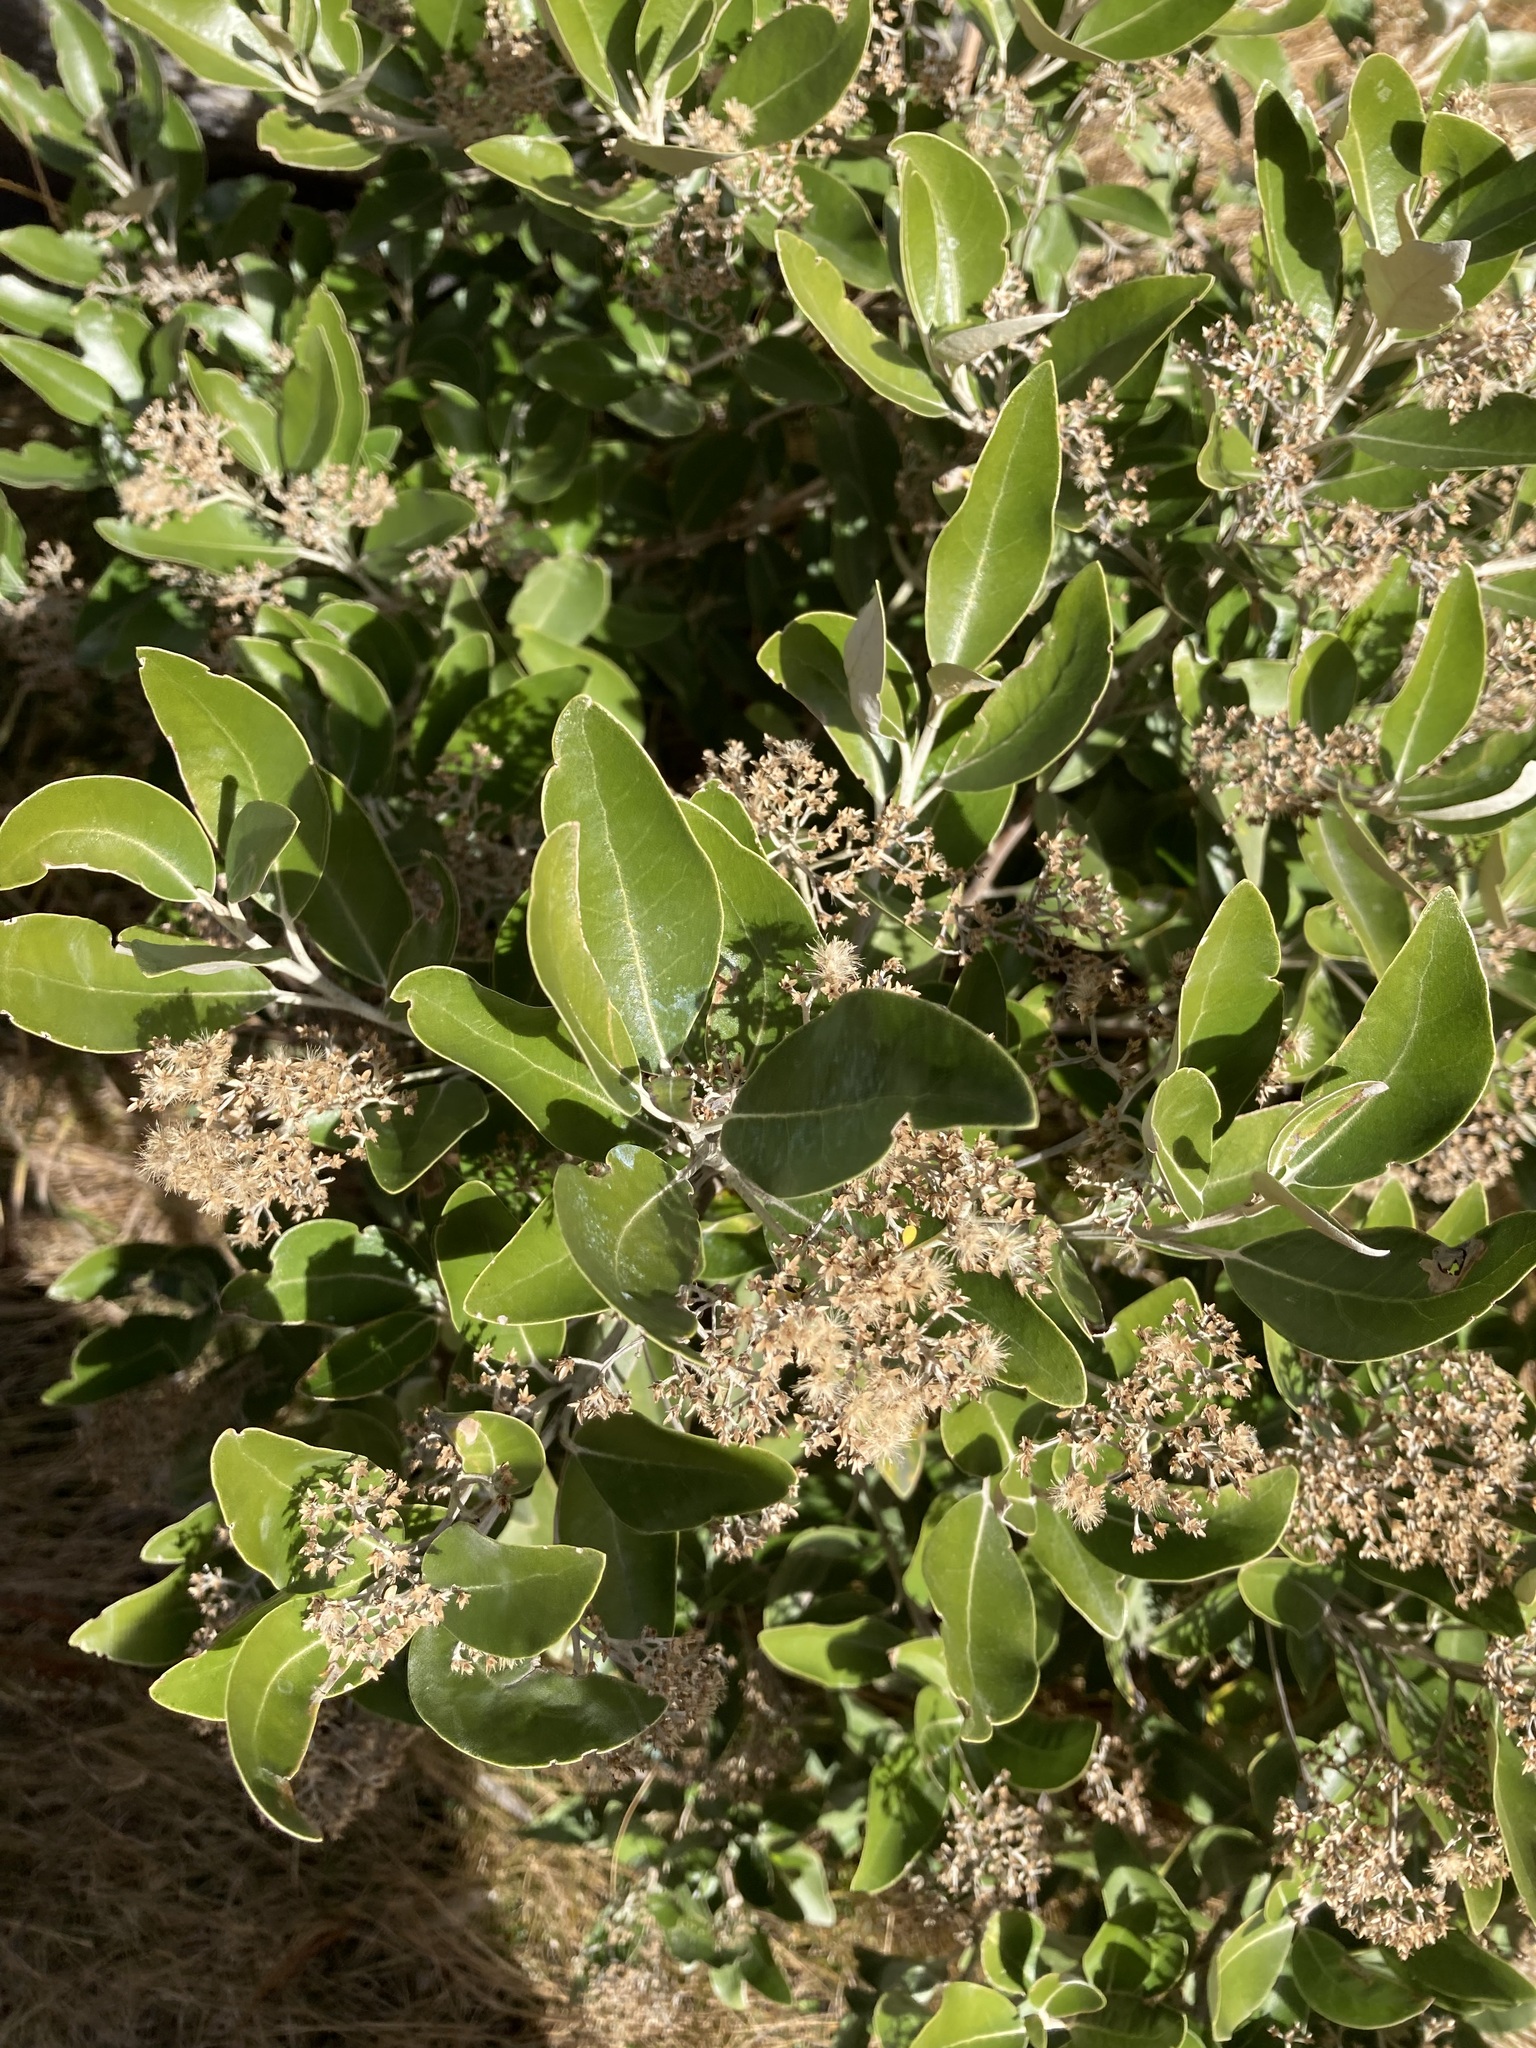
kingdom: Plantae
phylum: Tracheophyta
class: Magnoliopsida
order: Asterales
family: Asteraceae
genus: Olearia
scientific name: Olearia avicenniifolia
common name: Mangrove-leaf daisybush
